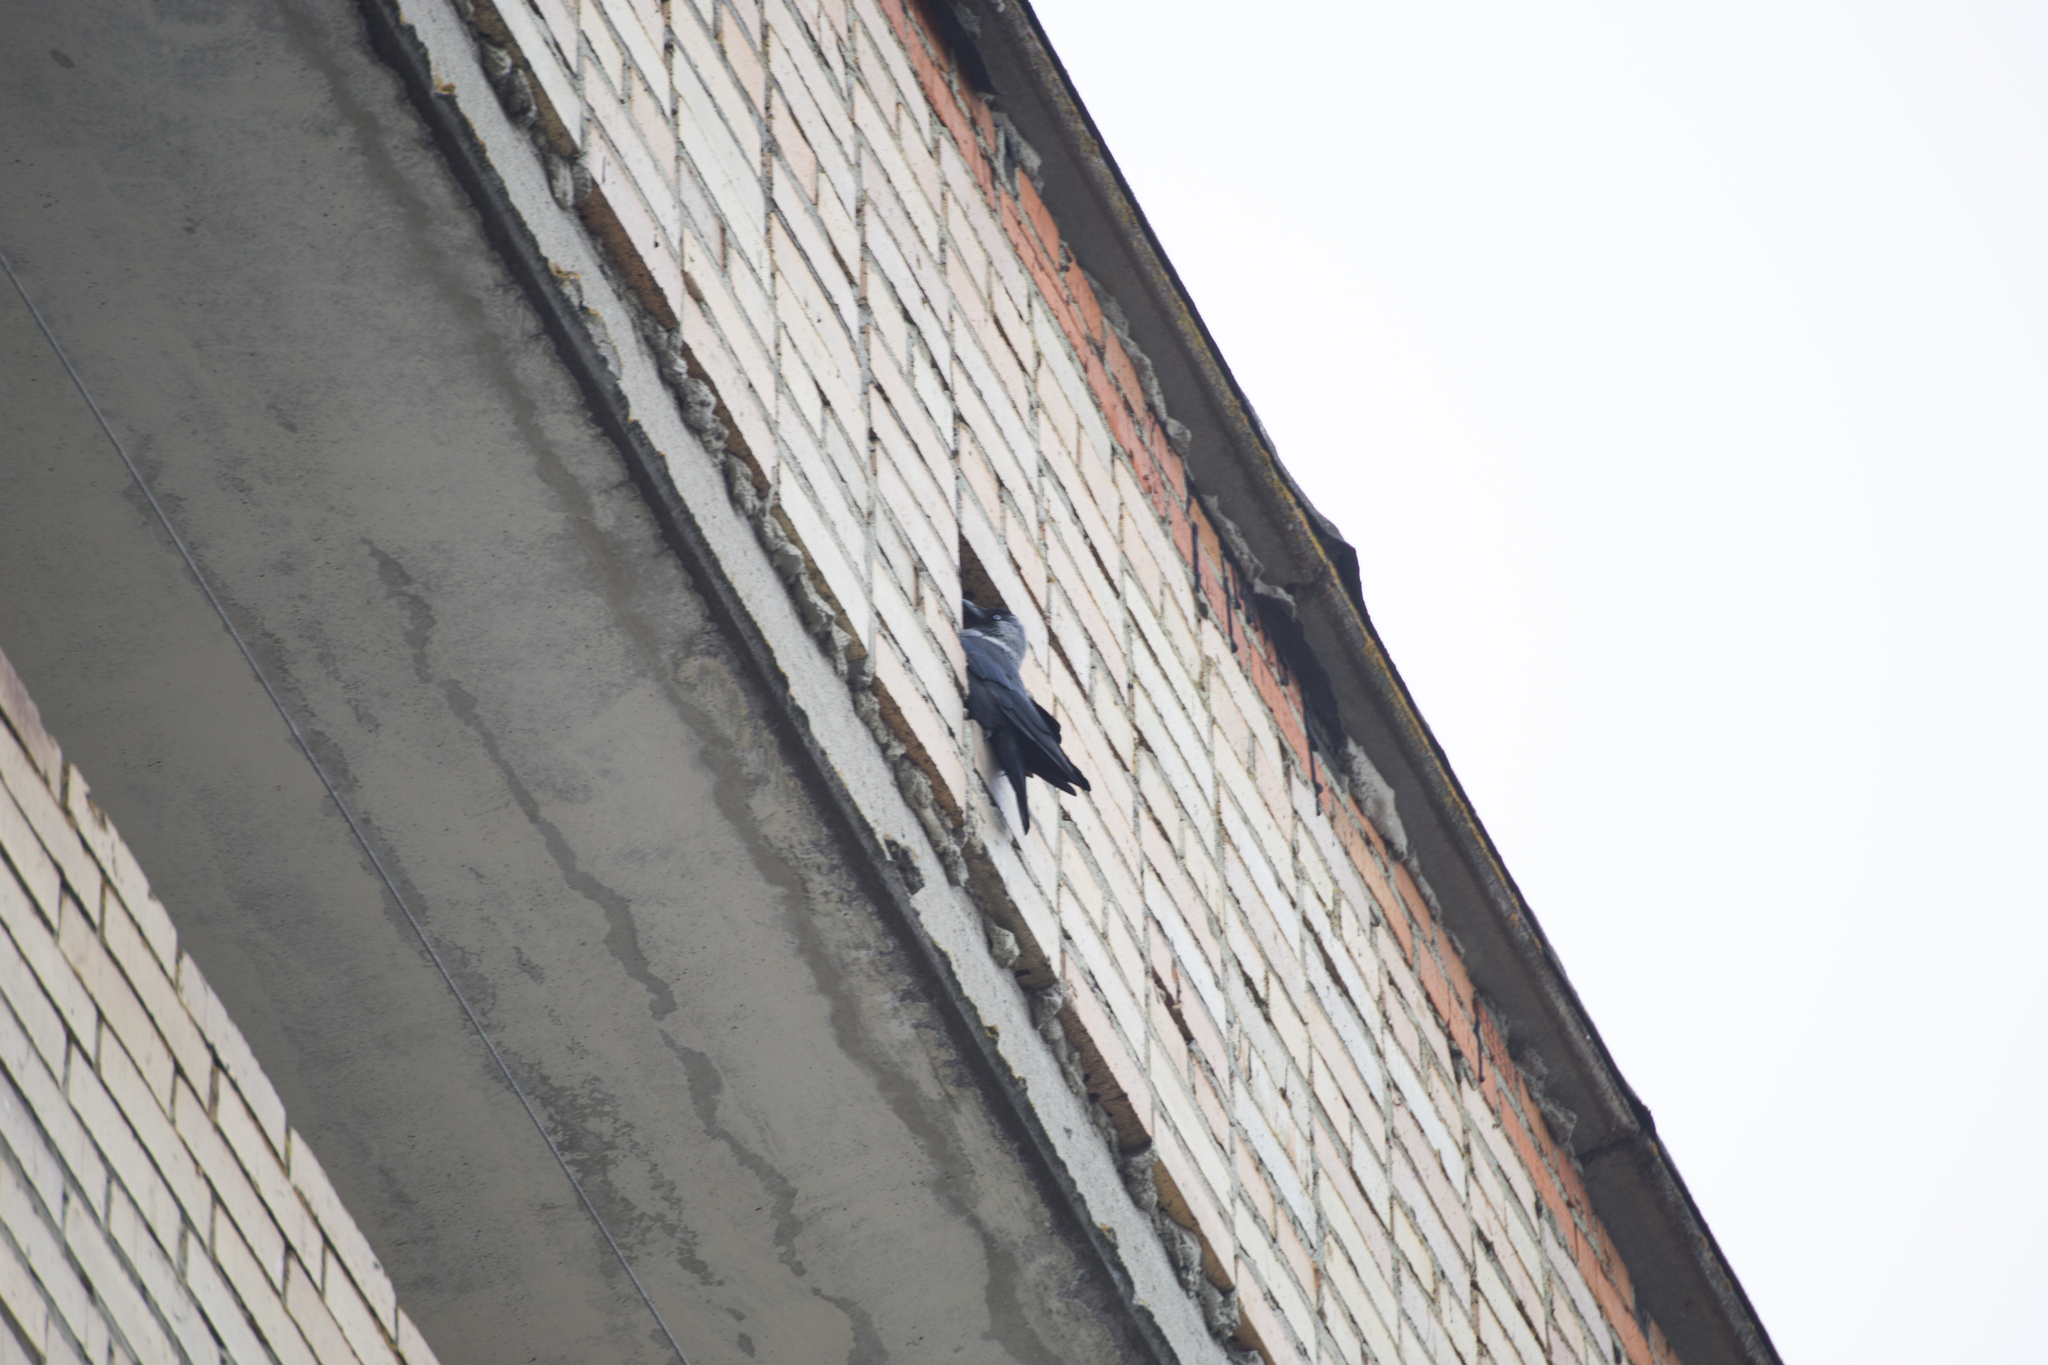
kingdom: Animalia
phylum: Chordata
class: Aves
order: Passeriformes
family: Corvidae
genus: Coloeus
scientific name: Coloeus monedula
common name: Western jackdaw
